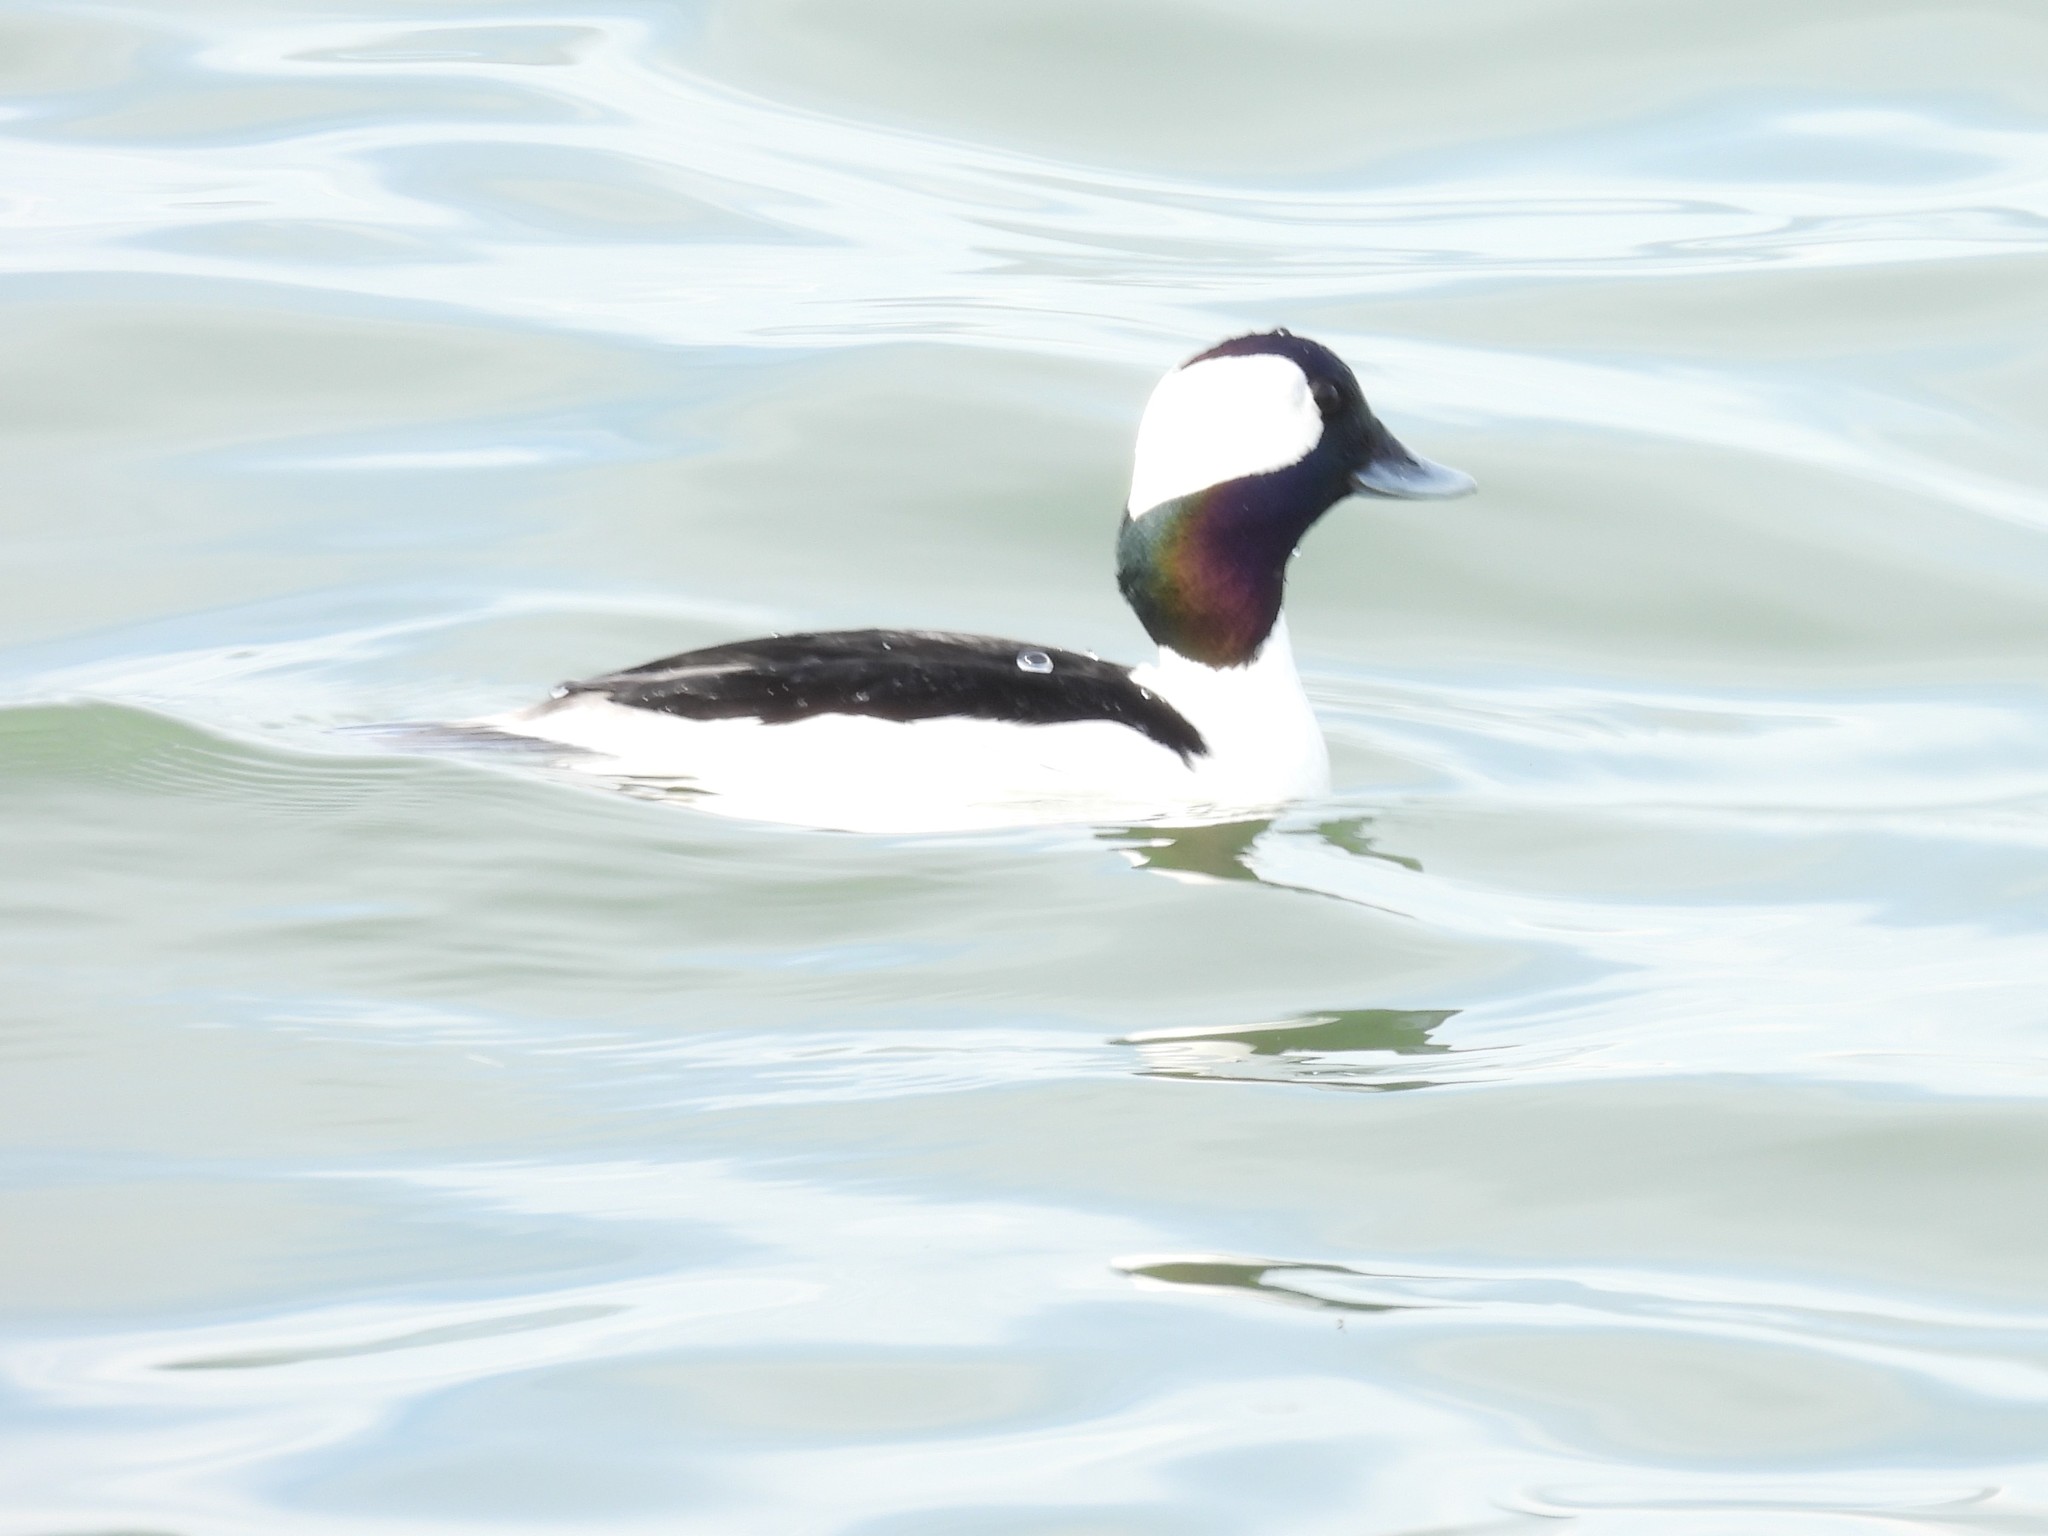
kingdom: Animalia
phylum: Chordata
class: Aves
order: Anseriformes
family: Anatidae
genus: Bucephala
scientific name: Bucephala albeola
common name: Bufflehead
